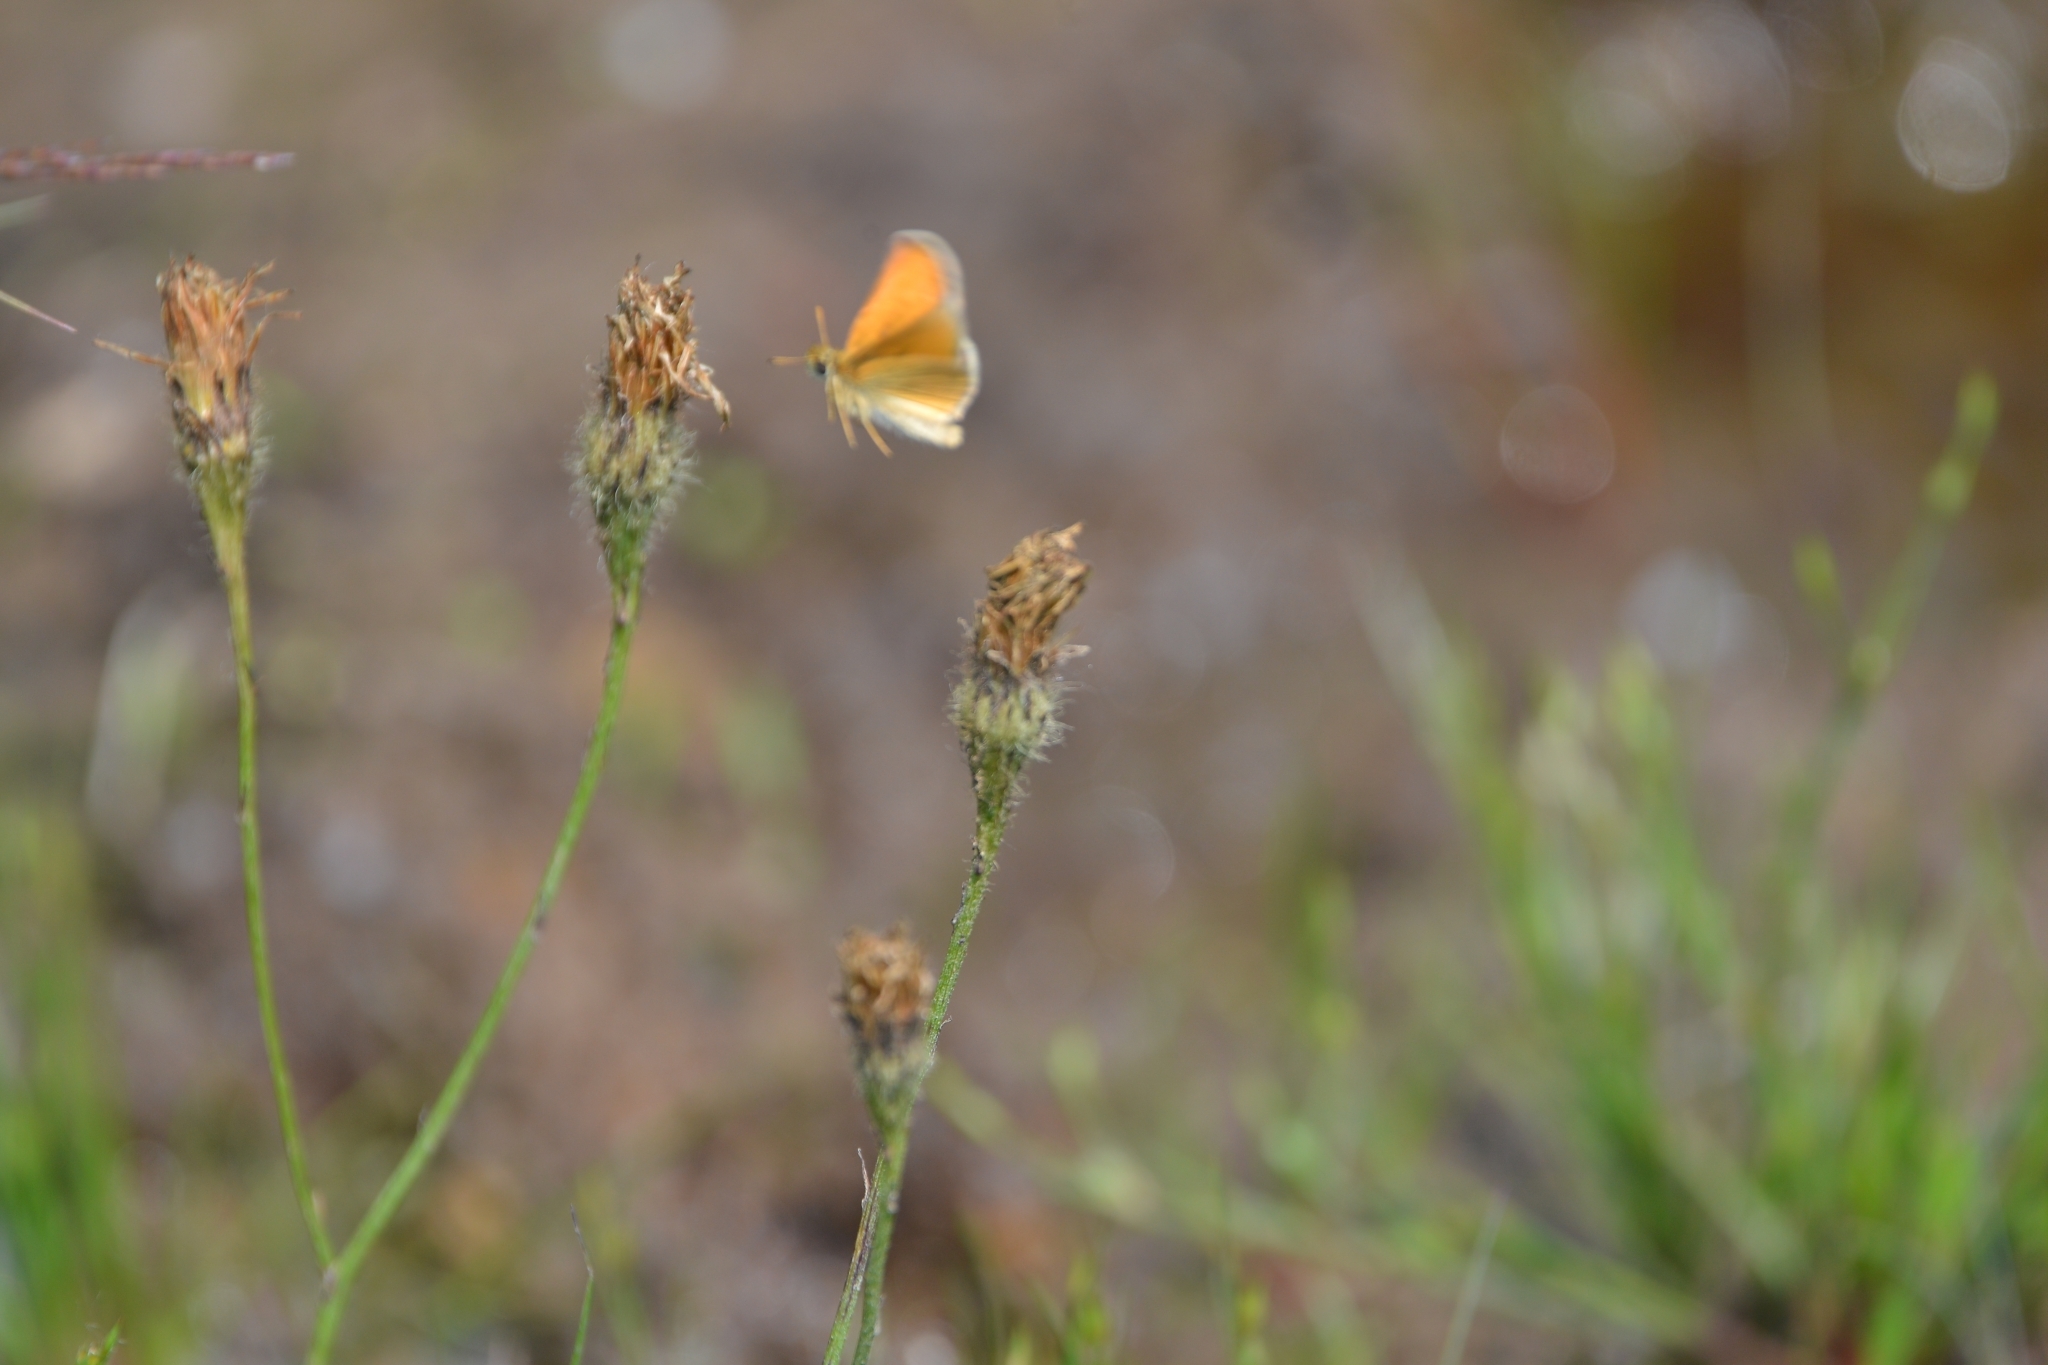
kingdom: Animalia
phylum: Arthropoda
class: Insecta
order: Lepidoptera
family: Hesperiidae
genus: Thymelicus
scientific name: Thymelicus lineola
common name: Essex skipper
